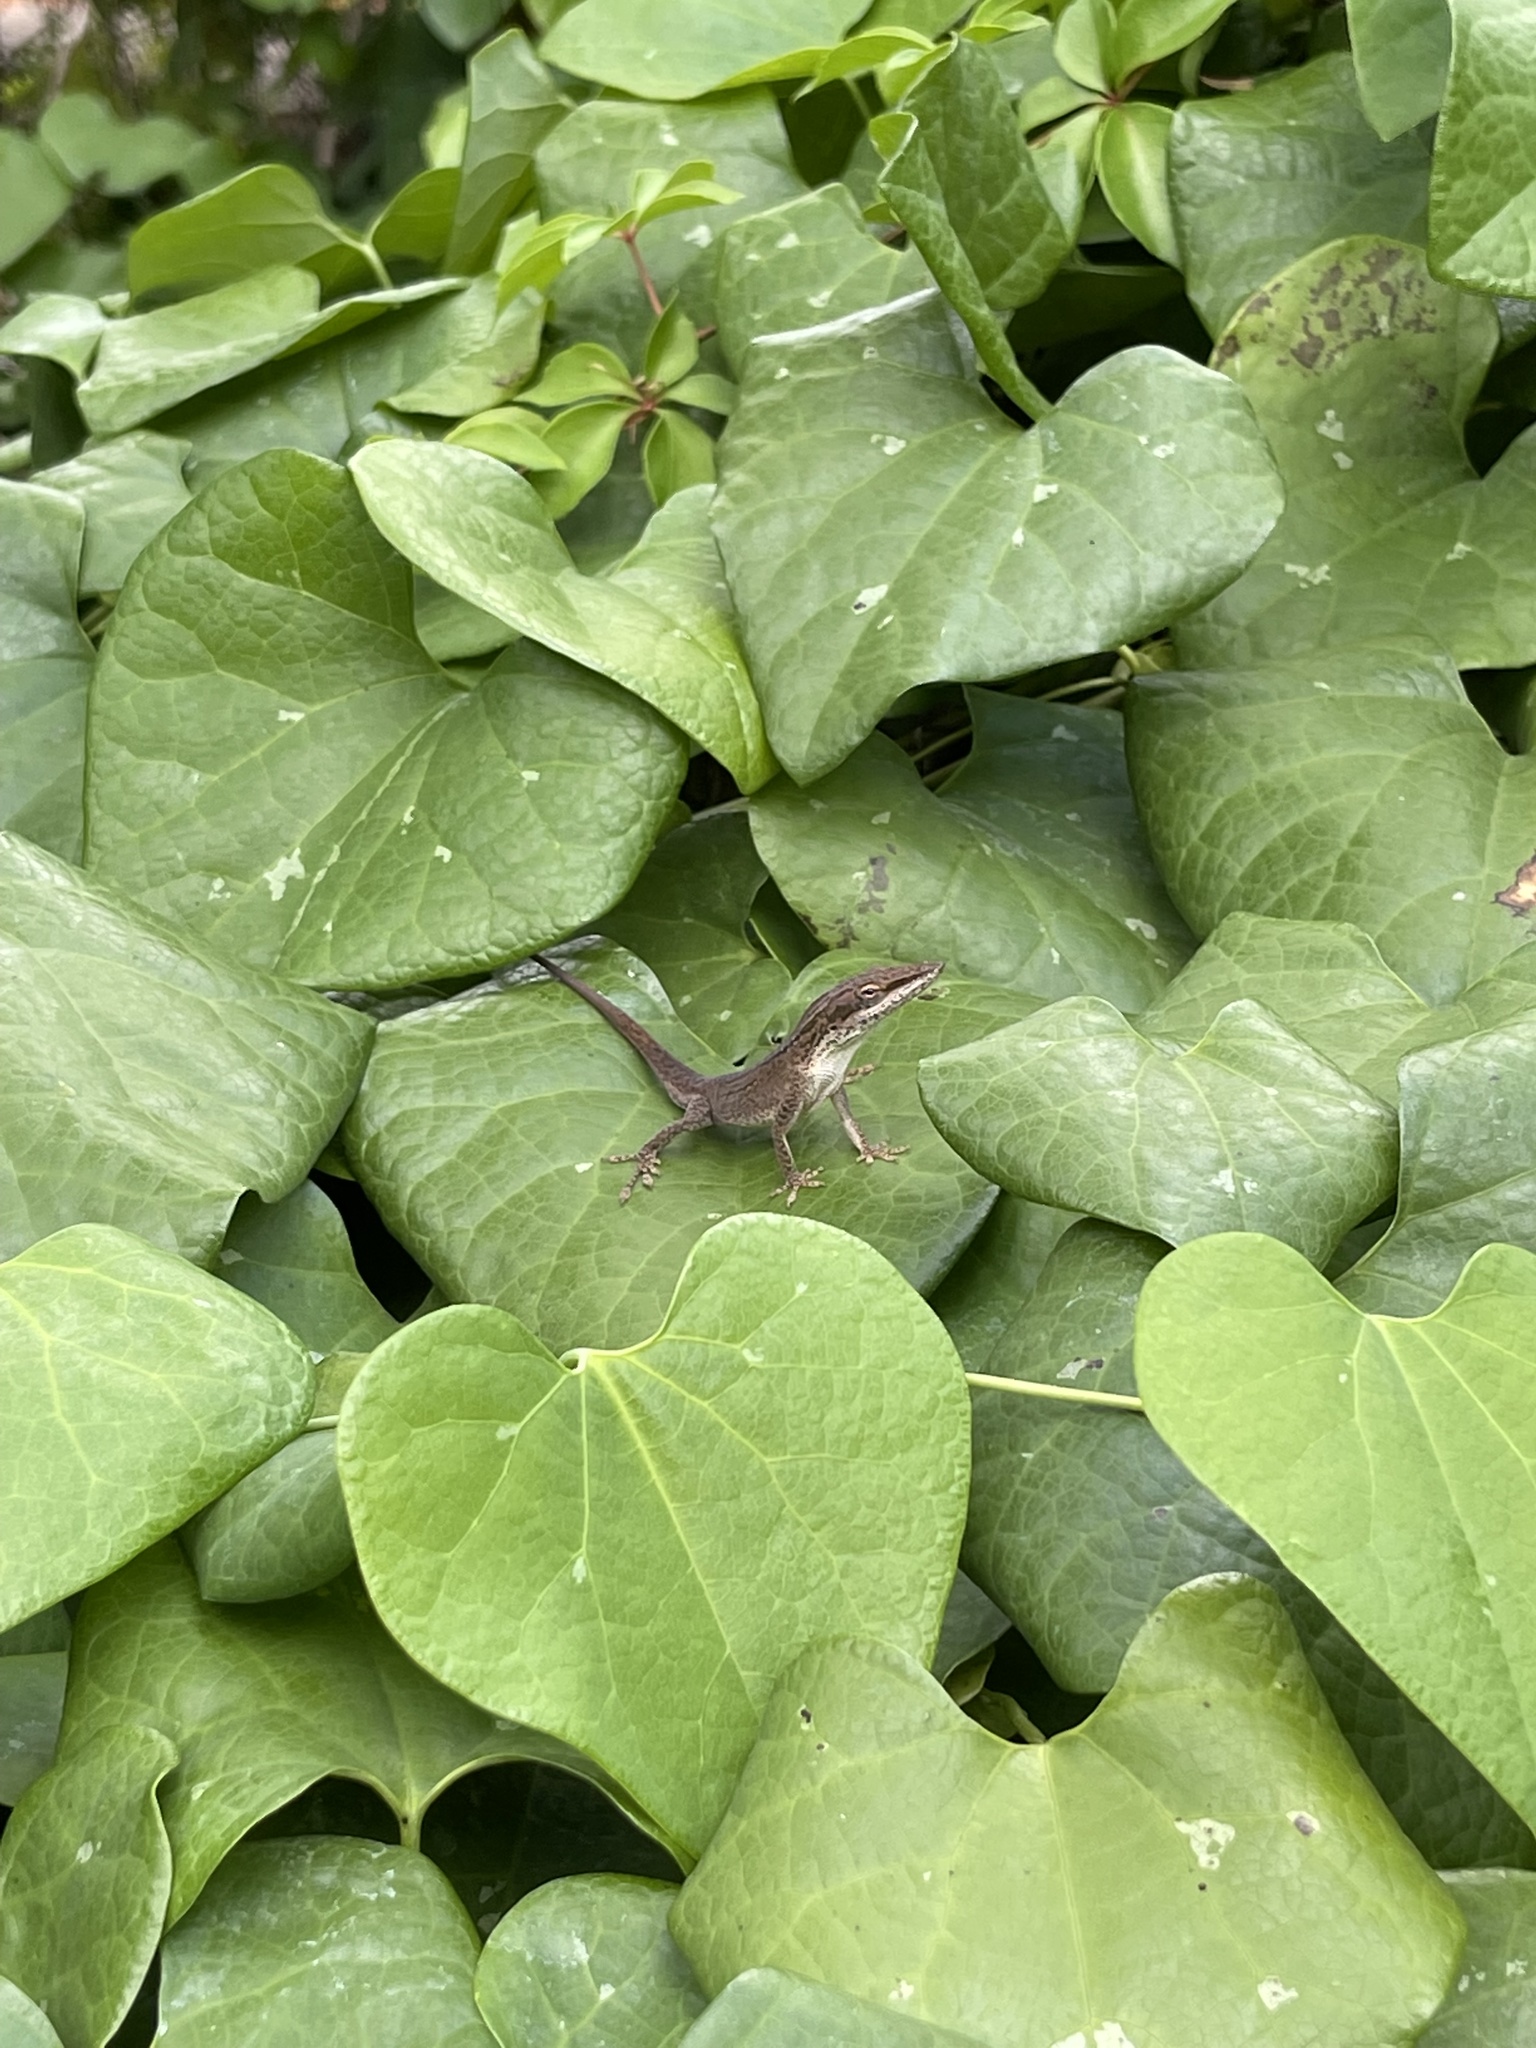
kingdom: Animalia
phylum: Chordata
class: Squamata
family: Dactyloidae
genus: Anolis
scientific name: Anolis carolinensis
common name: Green anole
